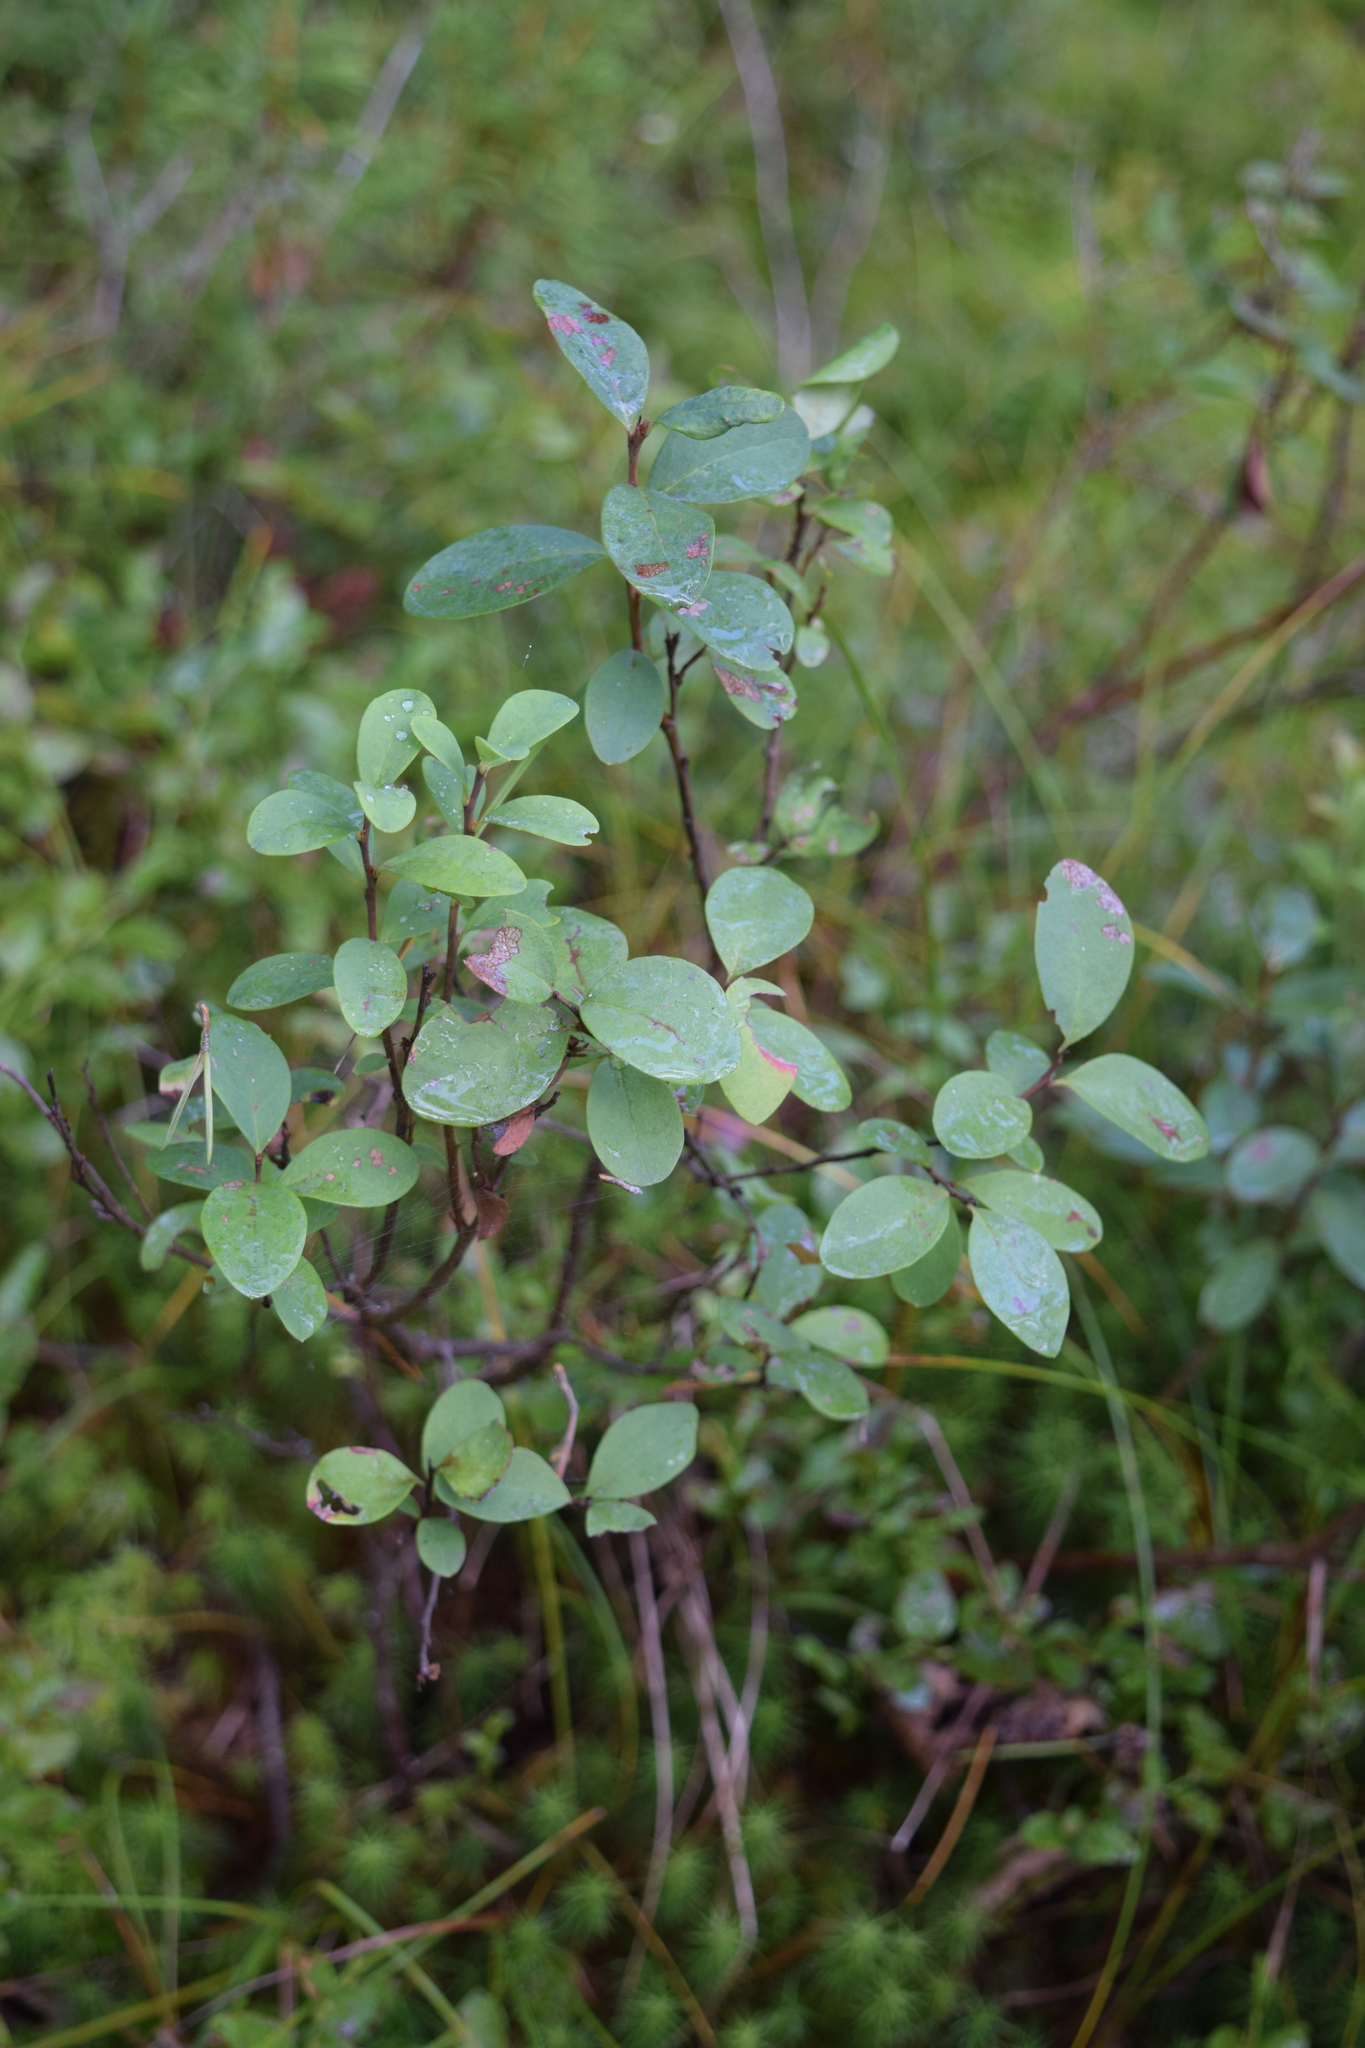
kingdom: Plantae
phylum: Tracheophyta
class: Magnoliopsida
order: Ericales
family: Ericaceae
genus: Vaccinium
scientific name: Vaccinium uliginosum
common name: Bog bilberry
